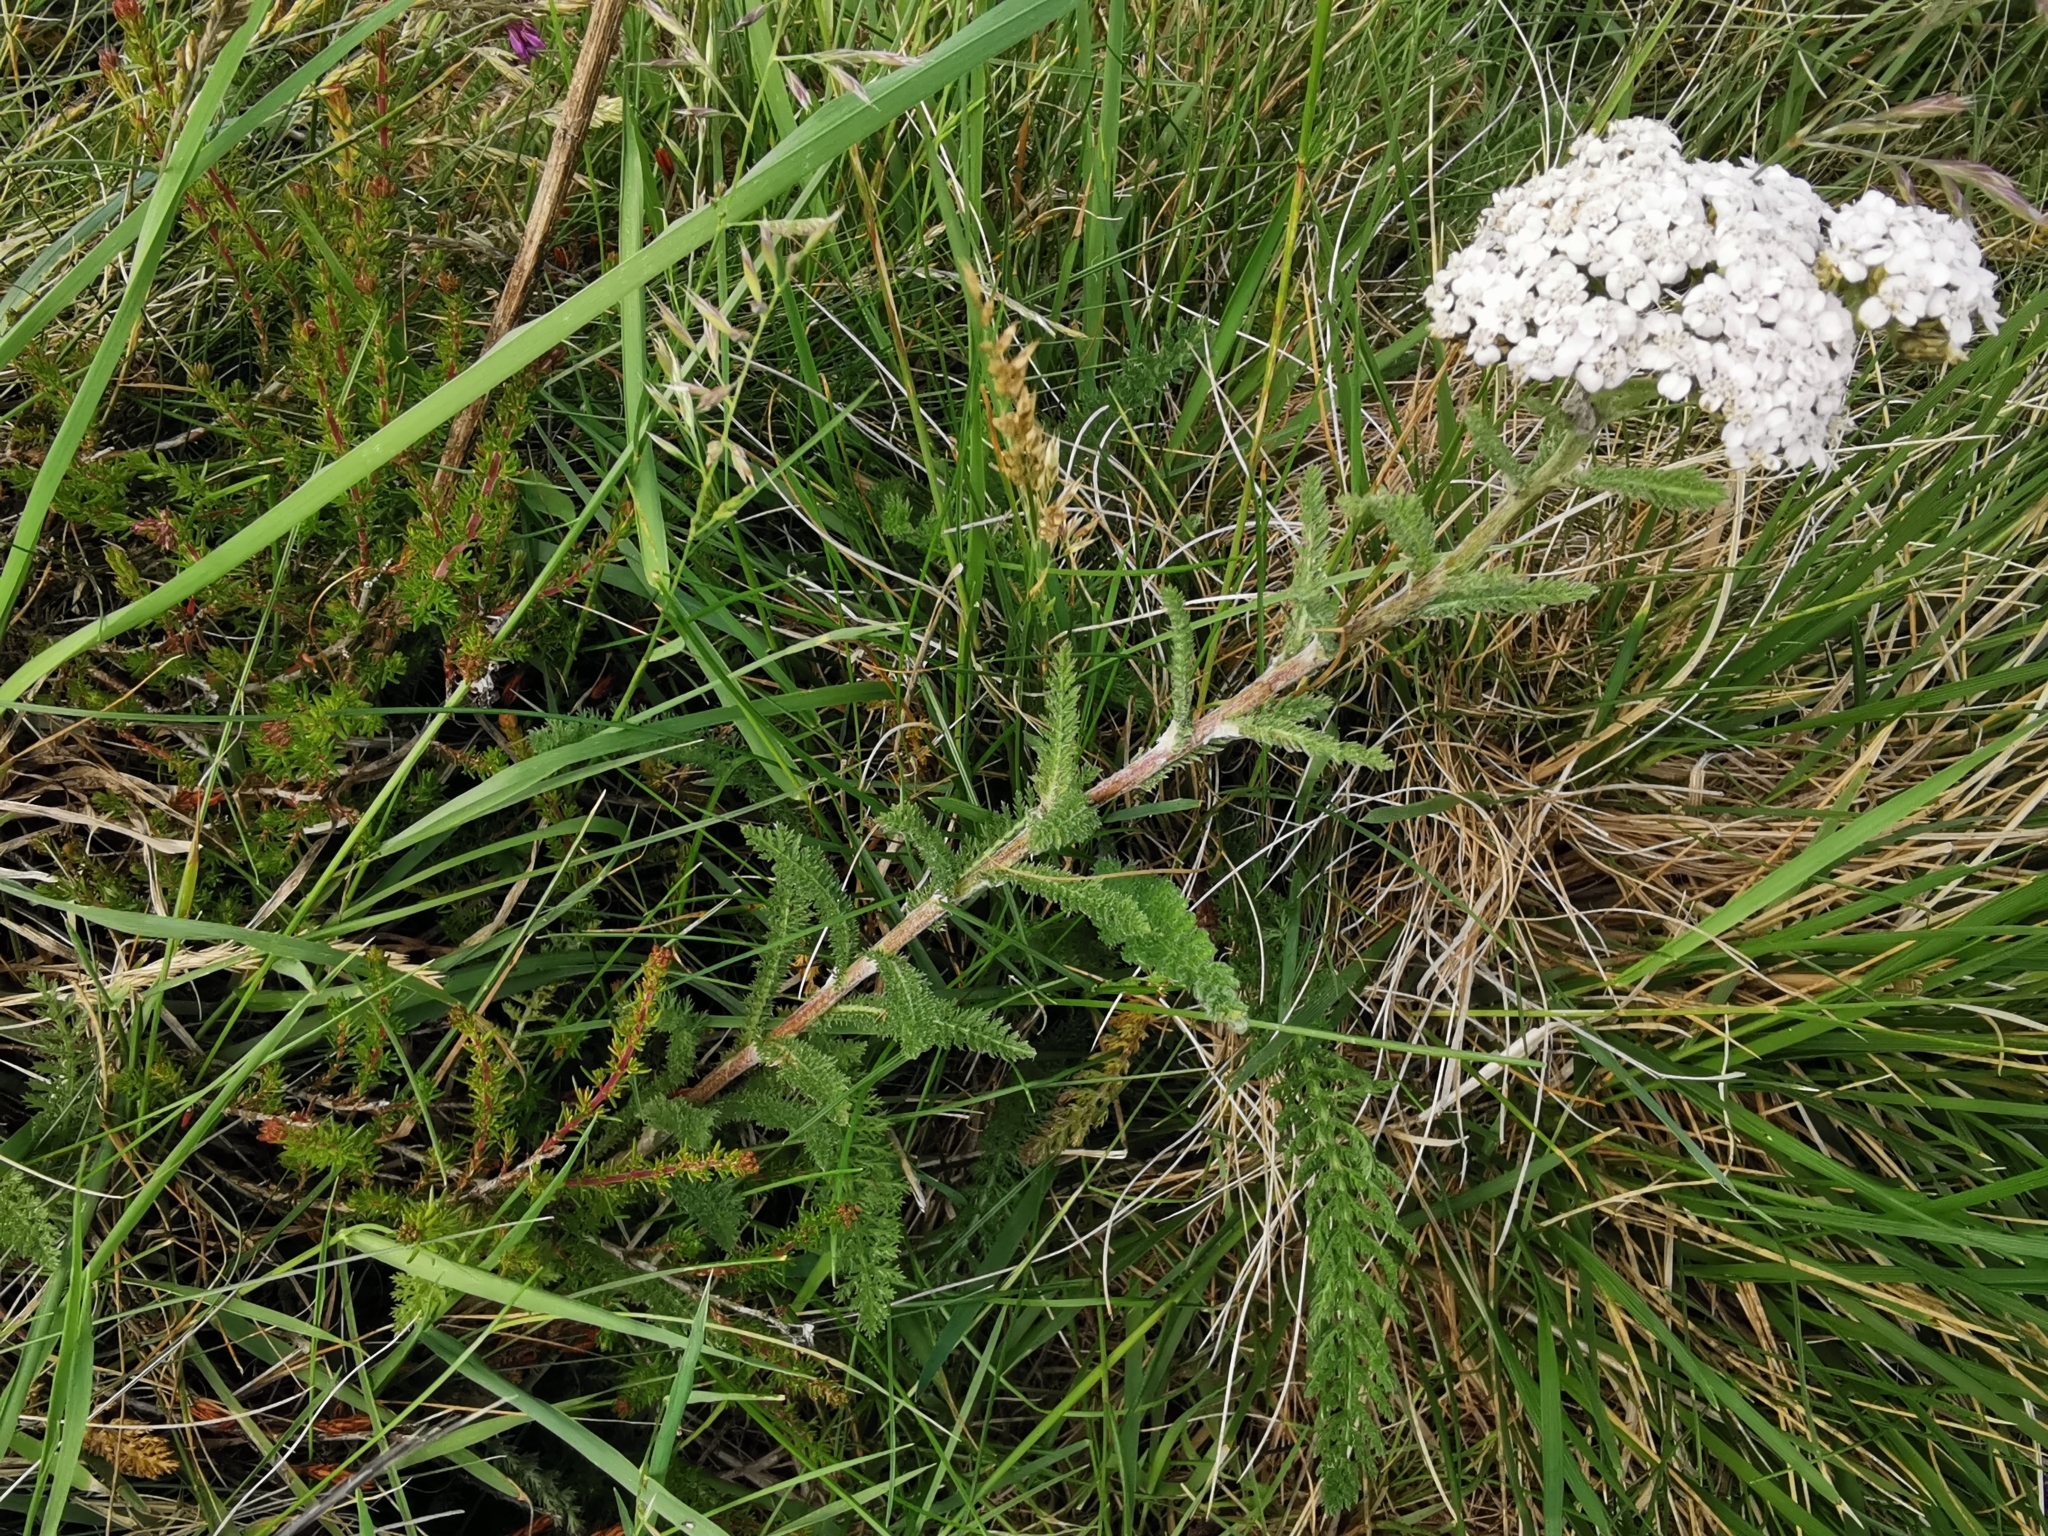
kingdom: Plantae
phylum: Tracheophyta
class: Magnoliopsida
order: Asterales
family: Asteraceae
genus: Achillea
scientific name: Achillea millefolium
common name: Yarrow
